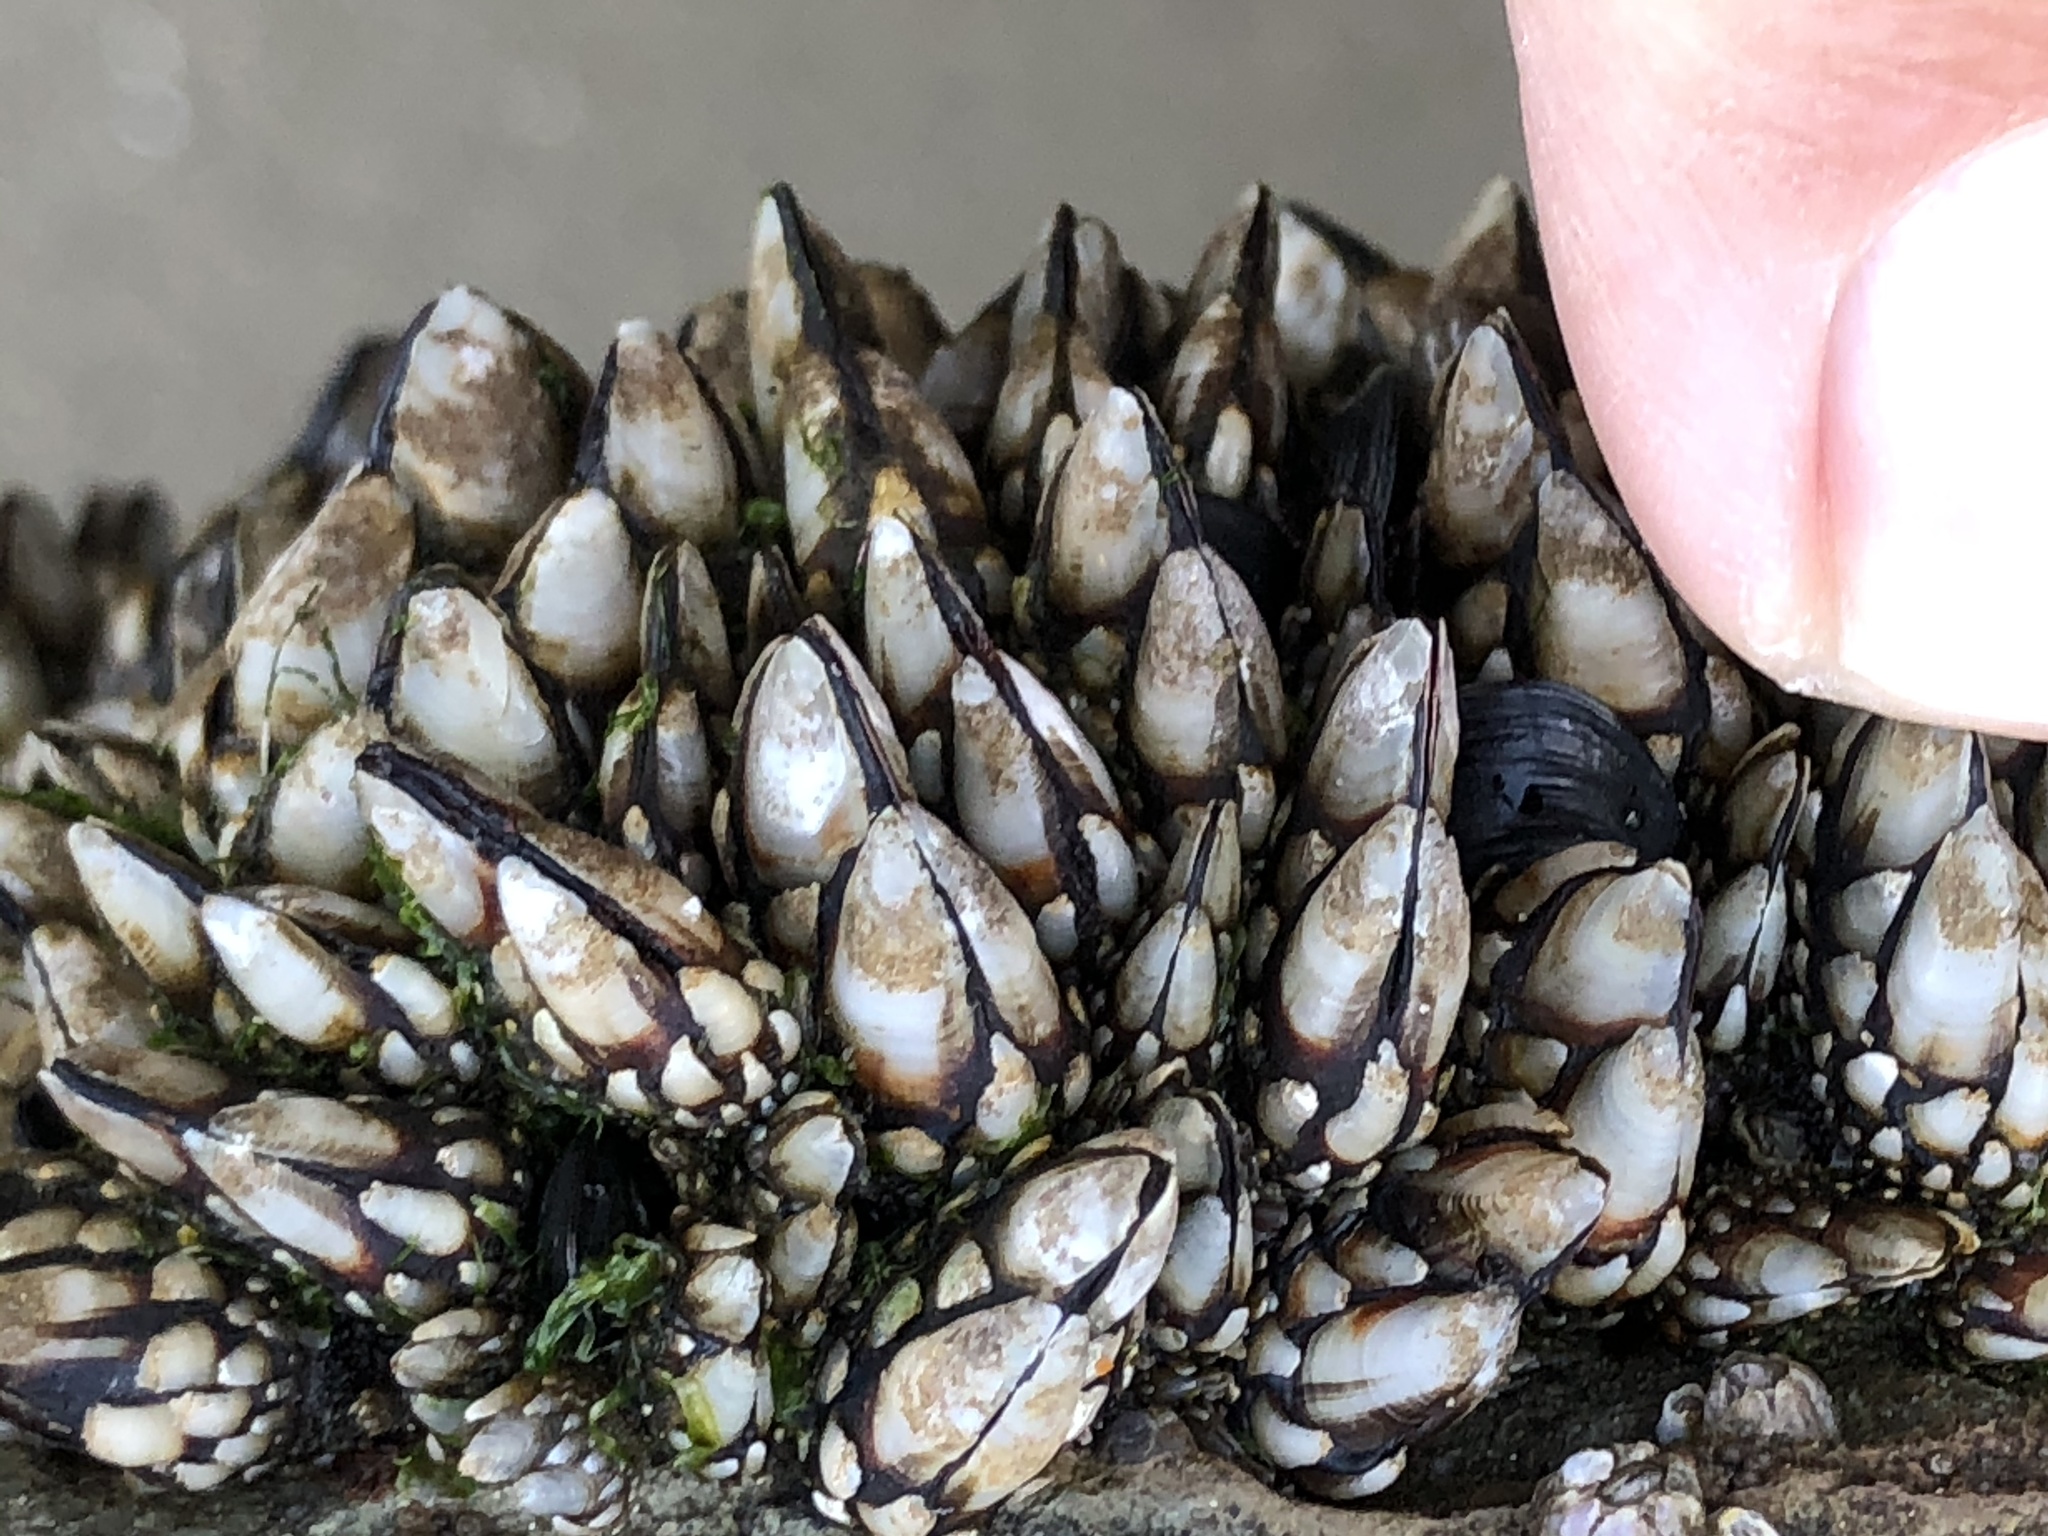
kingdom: Animalia
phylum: Arthropoda
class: Maxillopoda
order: Pedunculata
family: Pollicipedidae
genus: Pollicipes
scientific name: Pollicipes polymerus
